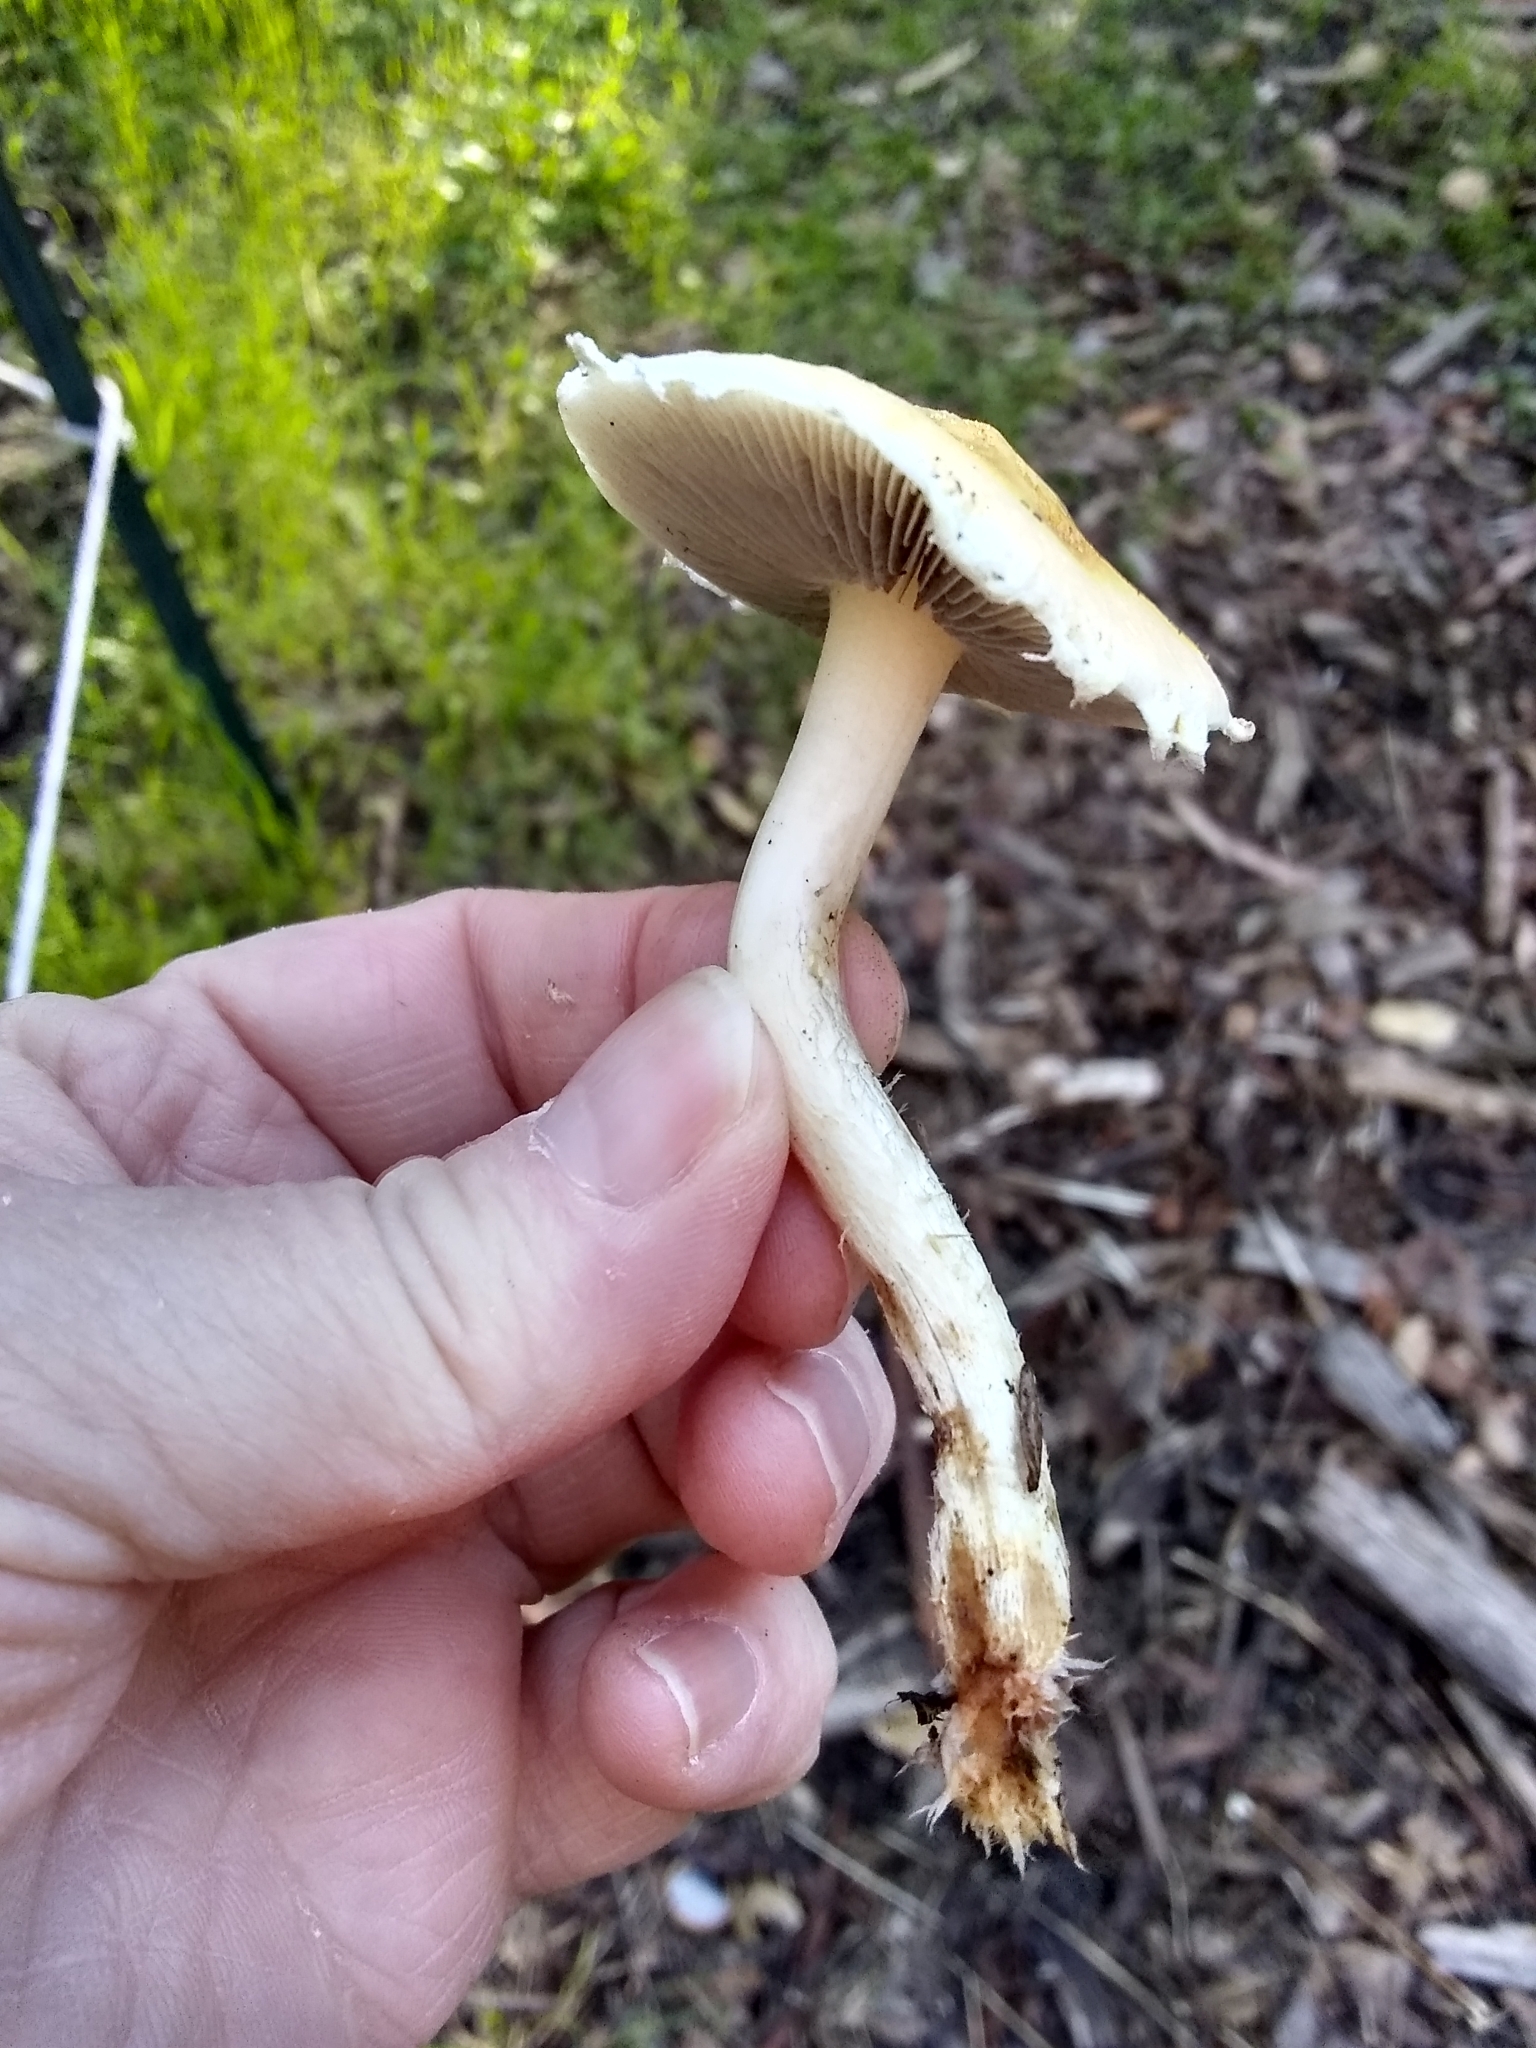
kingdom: Fungi
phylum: Basidiomycota
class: Agaricomycetes
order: Agaricales
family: Strophariaceae
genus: Leratiomyces
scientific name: Leratiomyces percevalii
